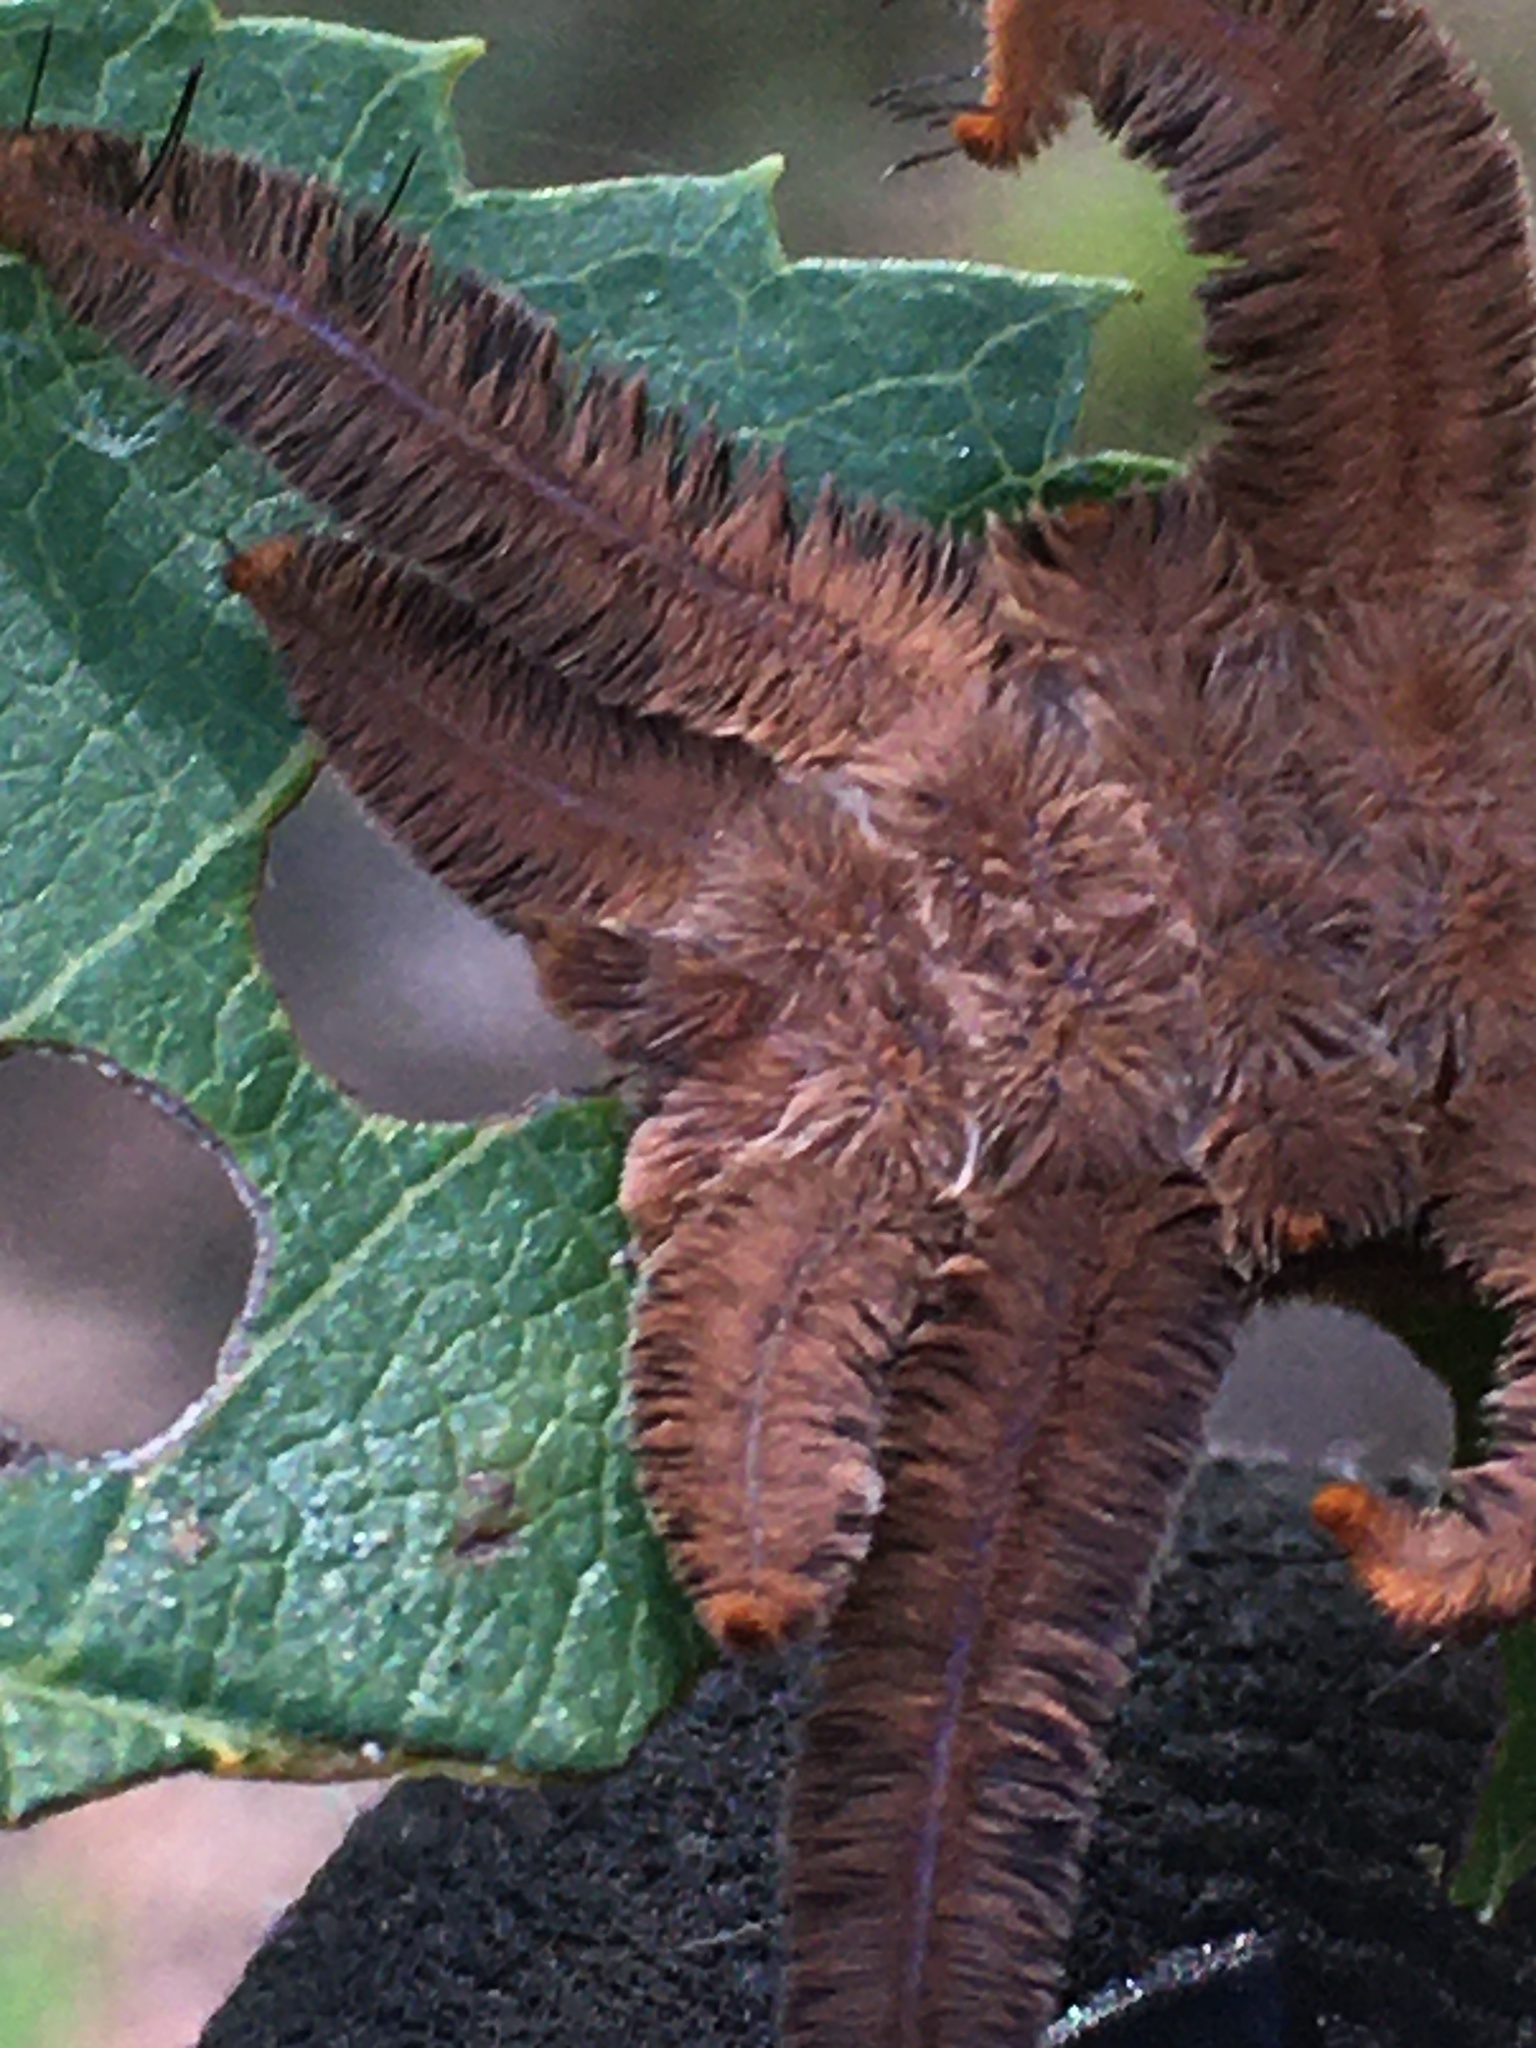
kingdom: Animalia
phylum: Arthropoda
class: Insecta
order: Lepidoptera
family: Limacodidae
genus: Phobetron
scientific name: Phobetron pithecium
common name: Hag moth
